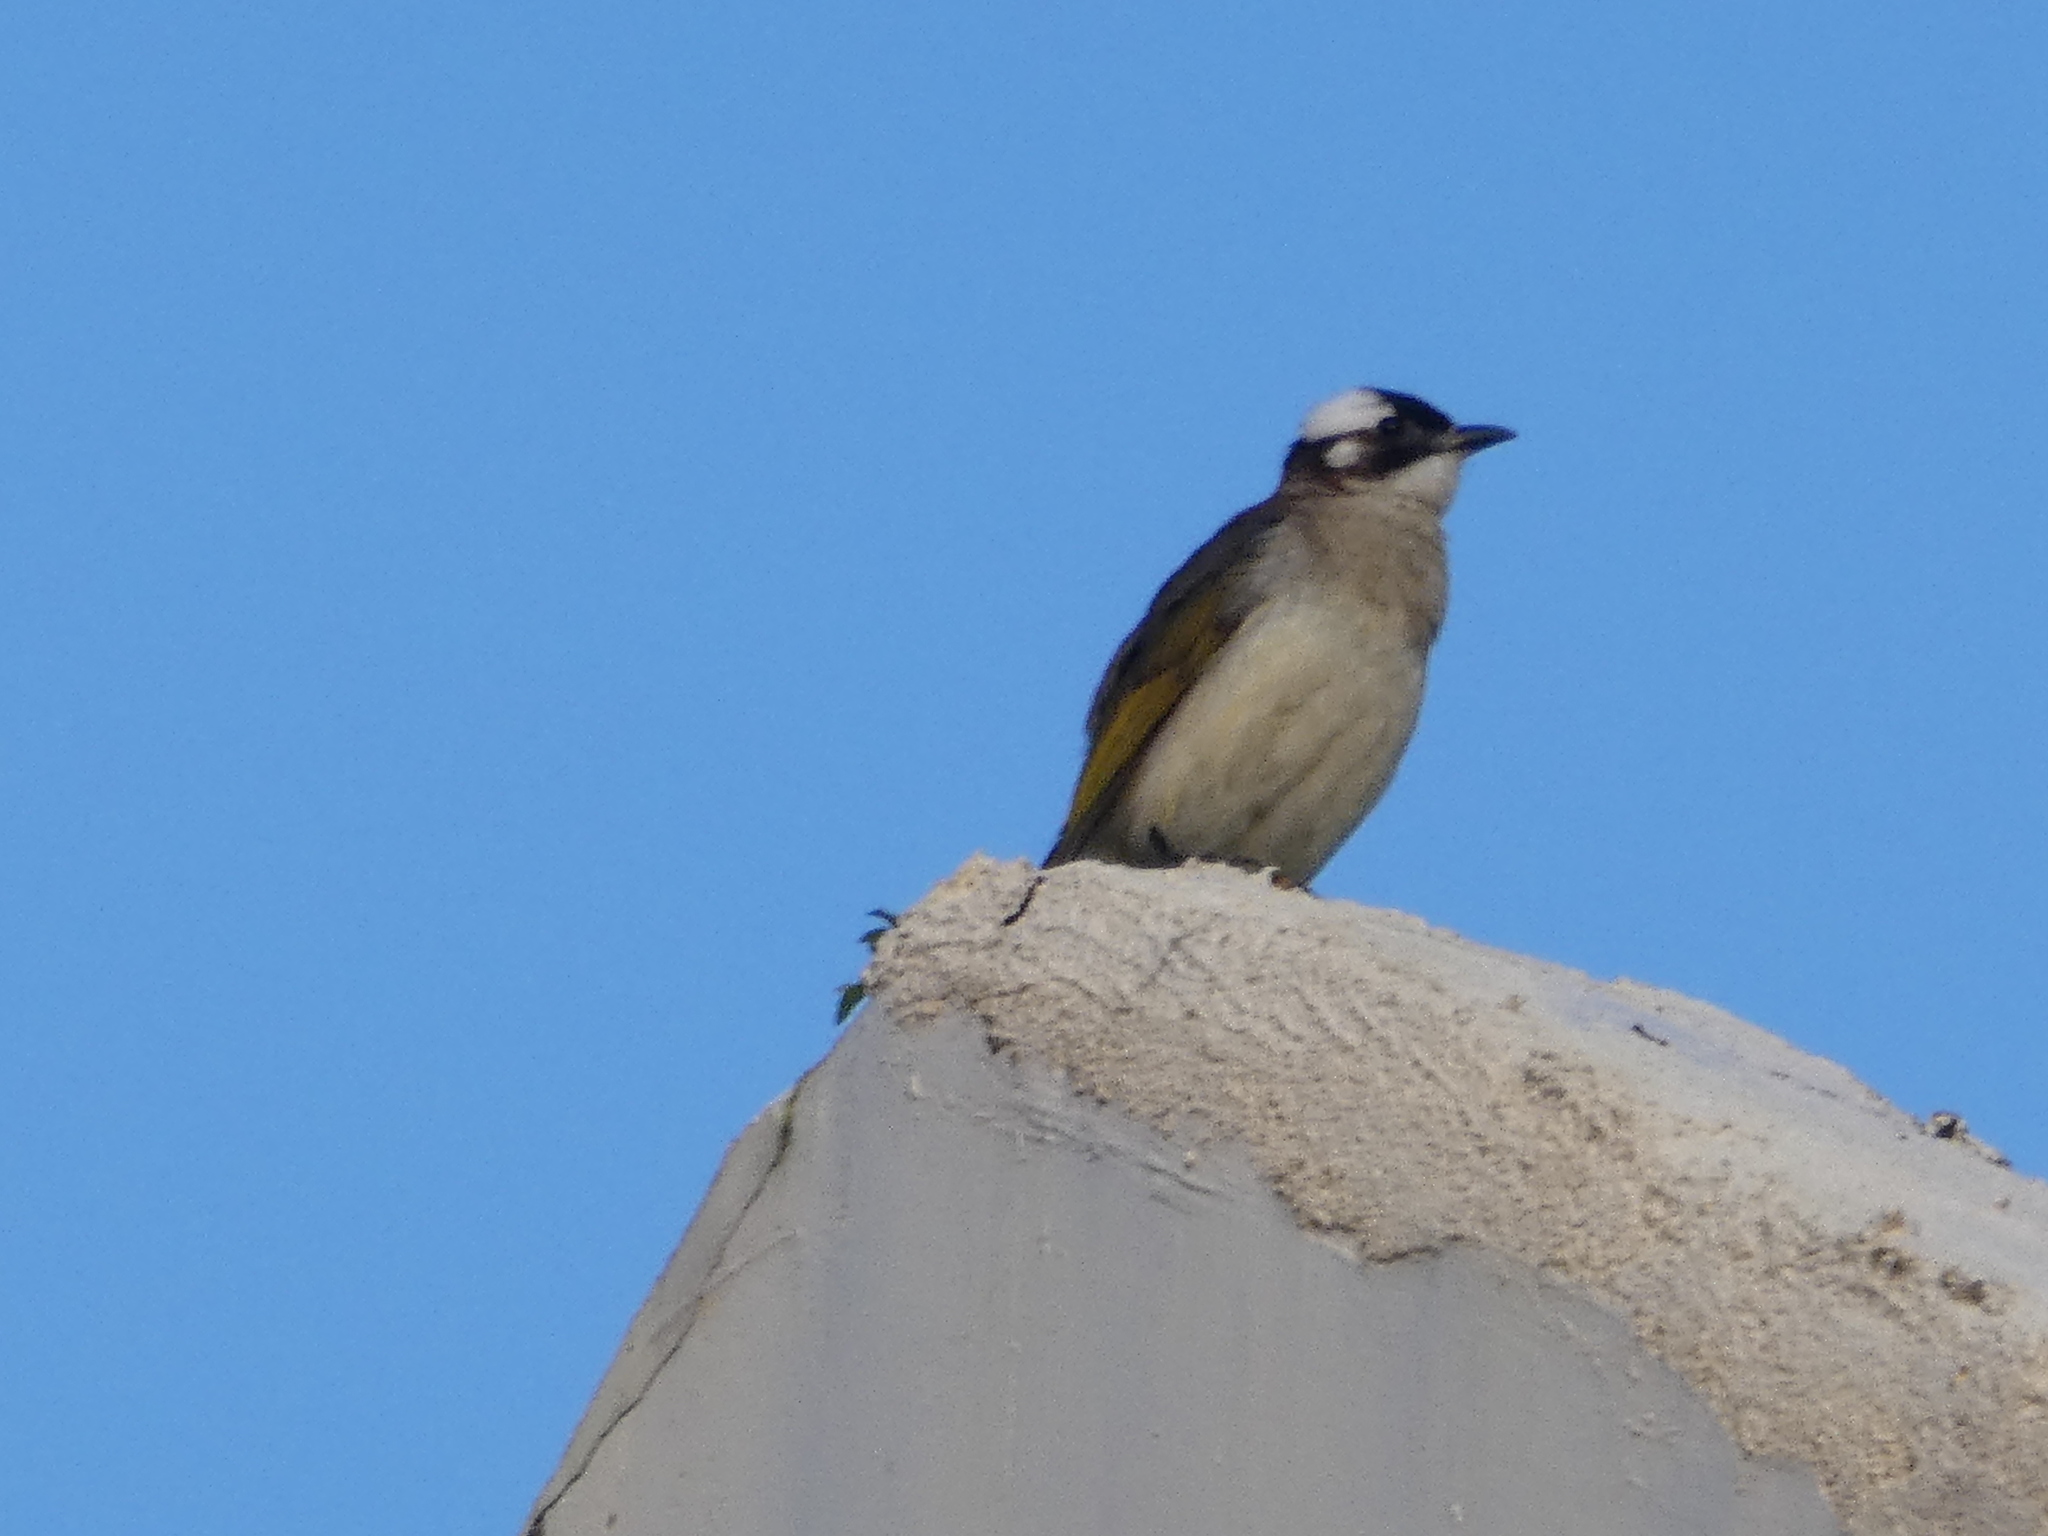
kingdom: Animalia
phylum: Chordata
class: Aves
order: Passeriformes
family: Pycnonotidae
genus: Pycnonotus
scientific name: Pycnonotus sinensis
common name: Light-vented bulbul
